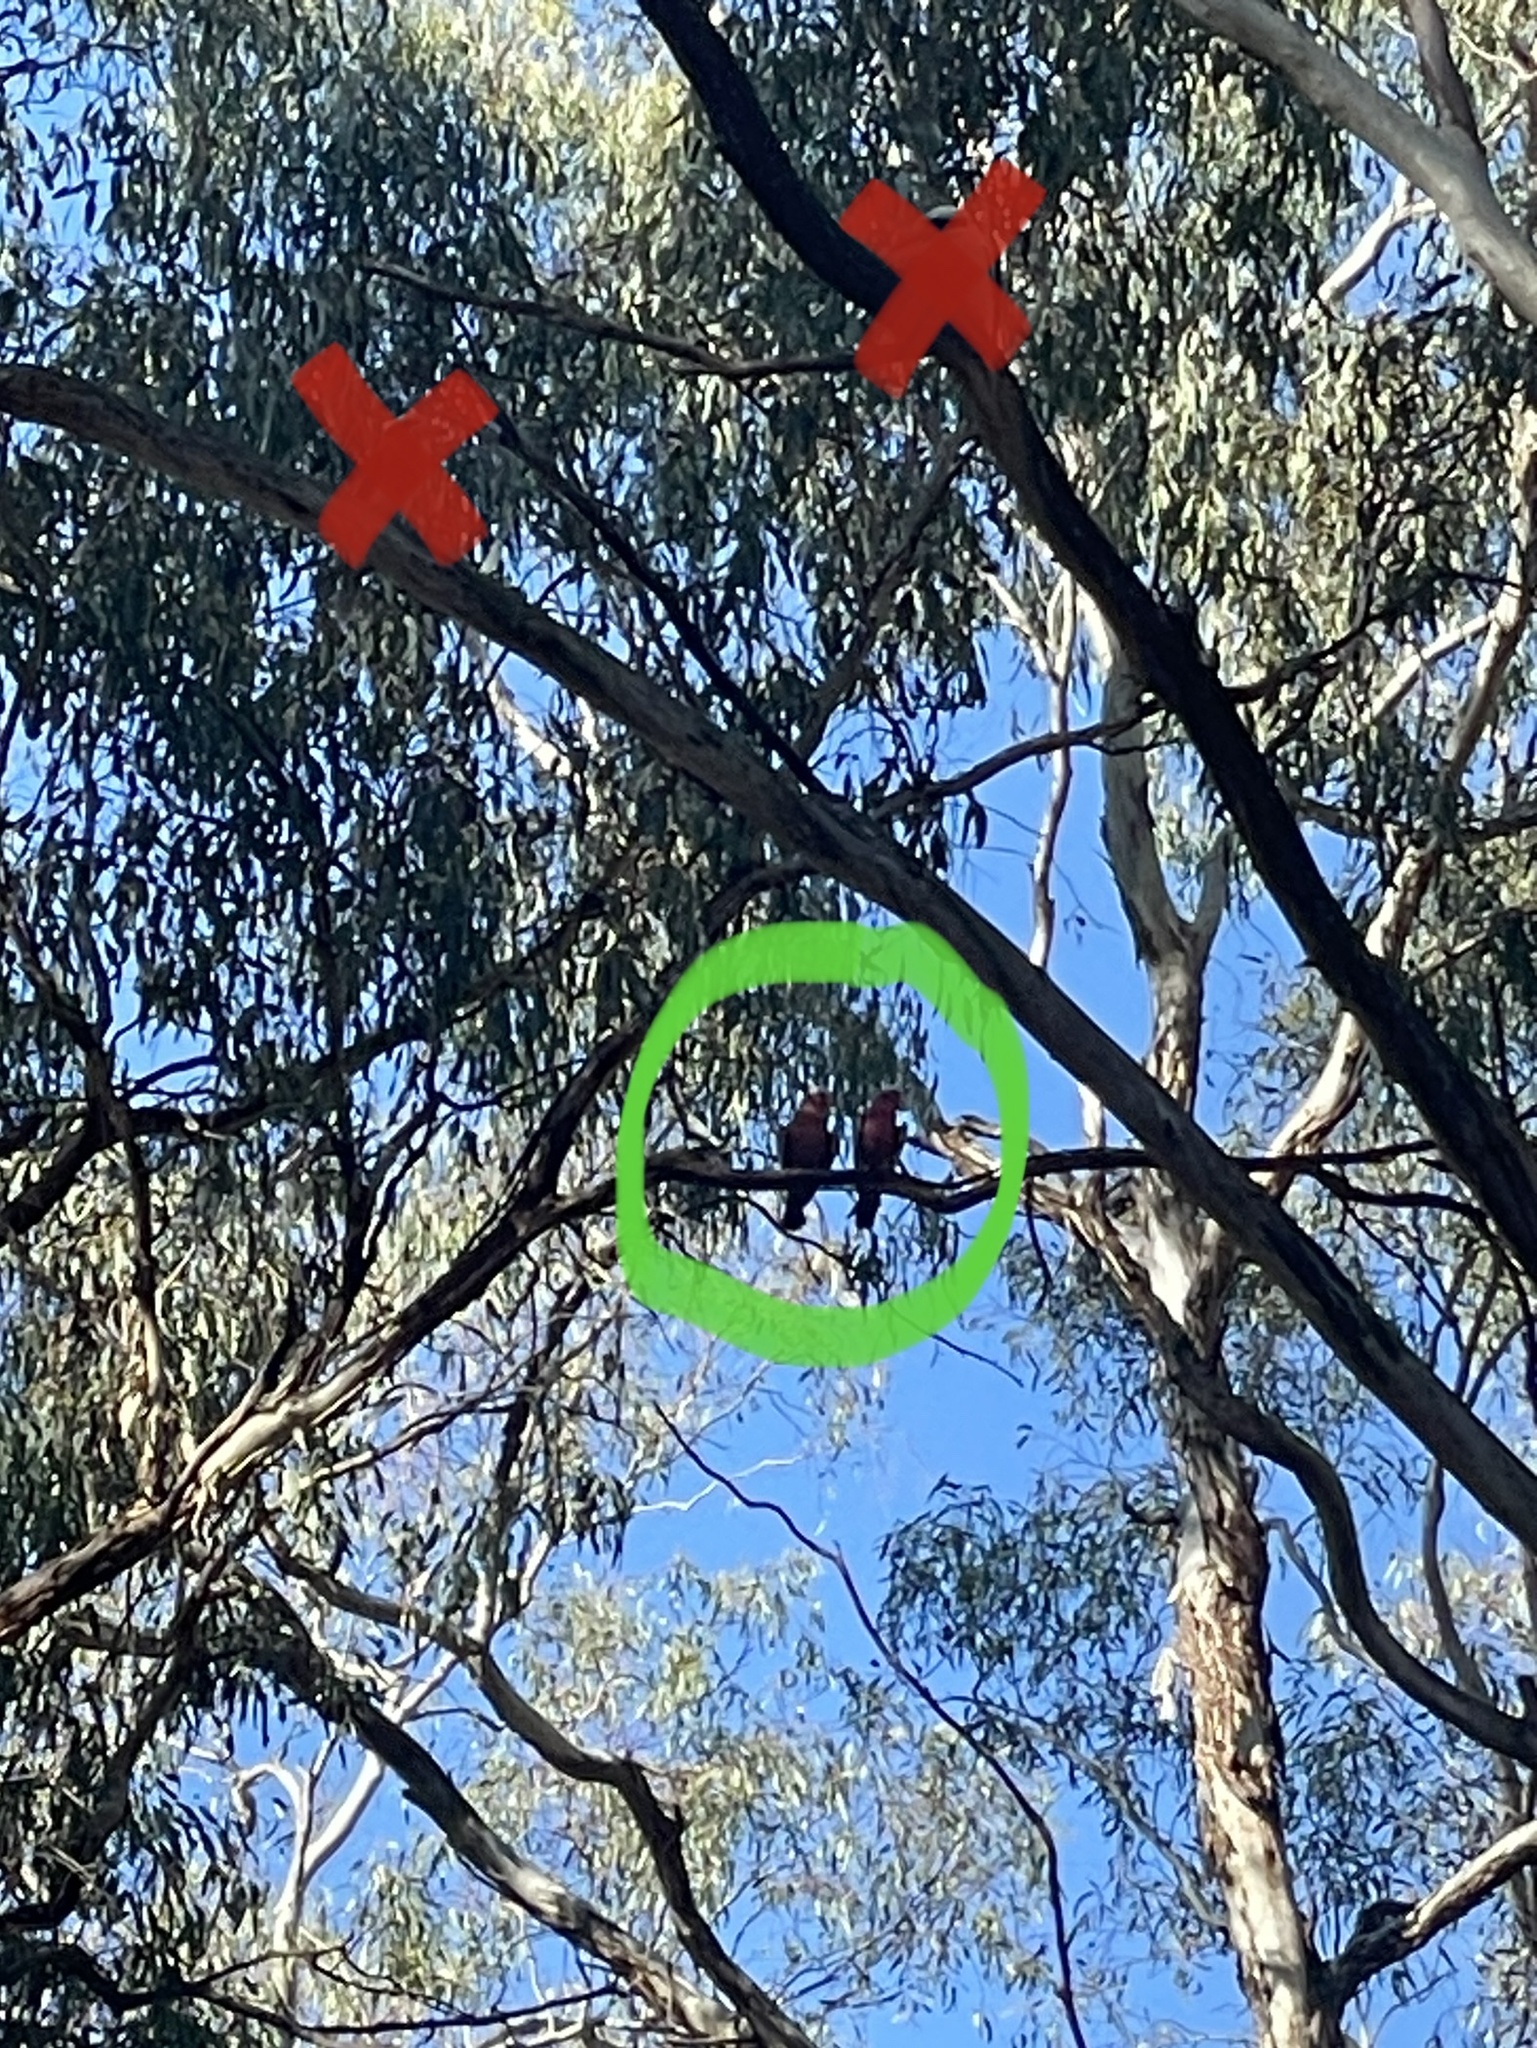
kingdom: Animalia
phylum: Chordata
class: Aves
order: Psittaciformes
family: Psittacidae
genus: Eolophus
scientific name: Eolophus roseicapilla
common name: Galah
